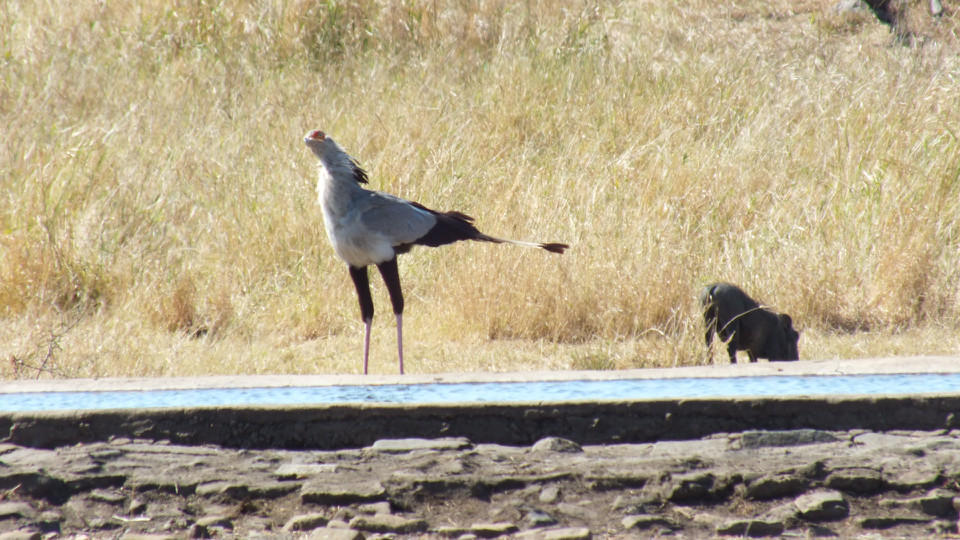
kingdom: Animalia
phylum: Chordata
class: Aves
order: Accipitriformes
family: Sagittariidae
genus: Sagittarius
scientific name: Sagittarius serpentarius
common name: Secretarybird
